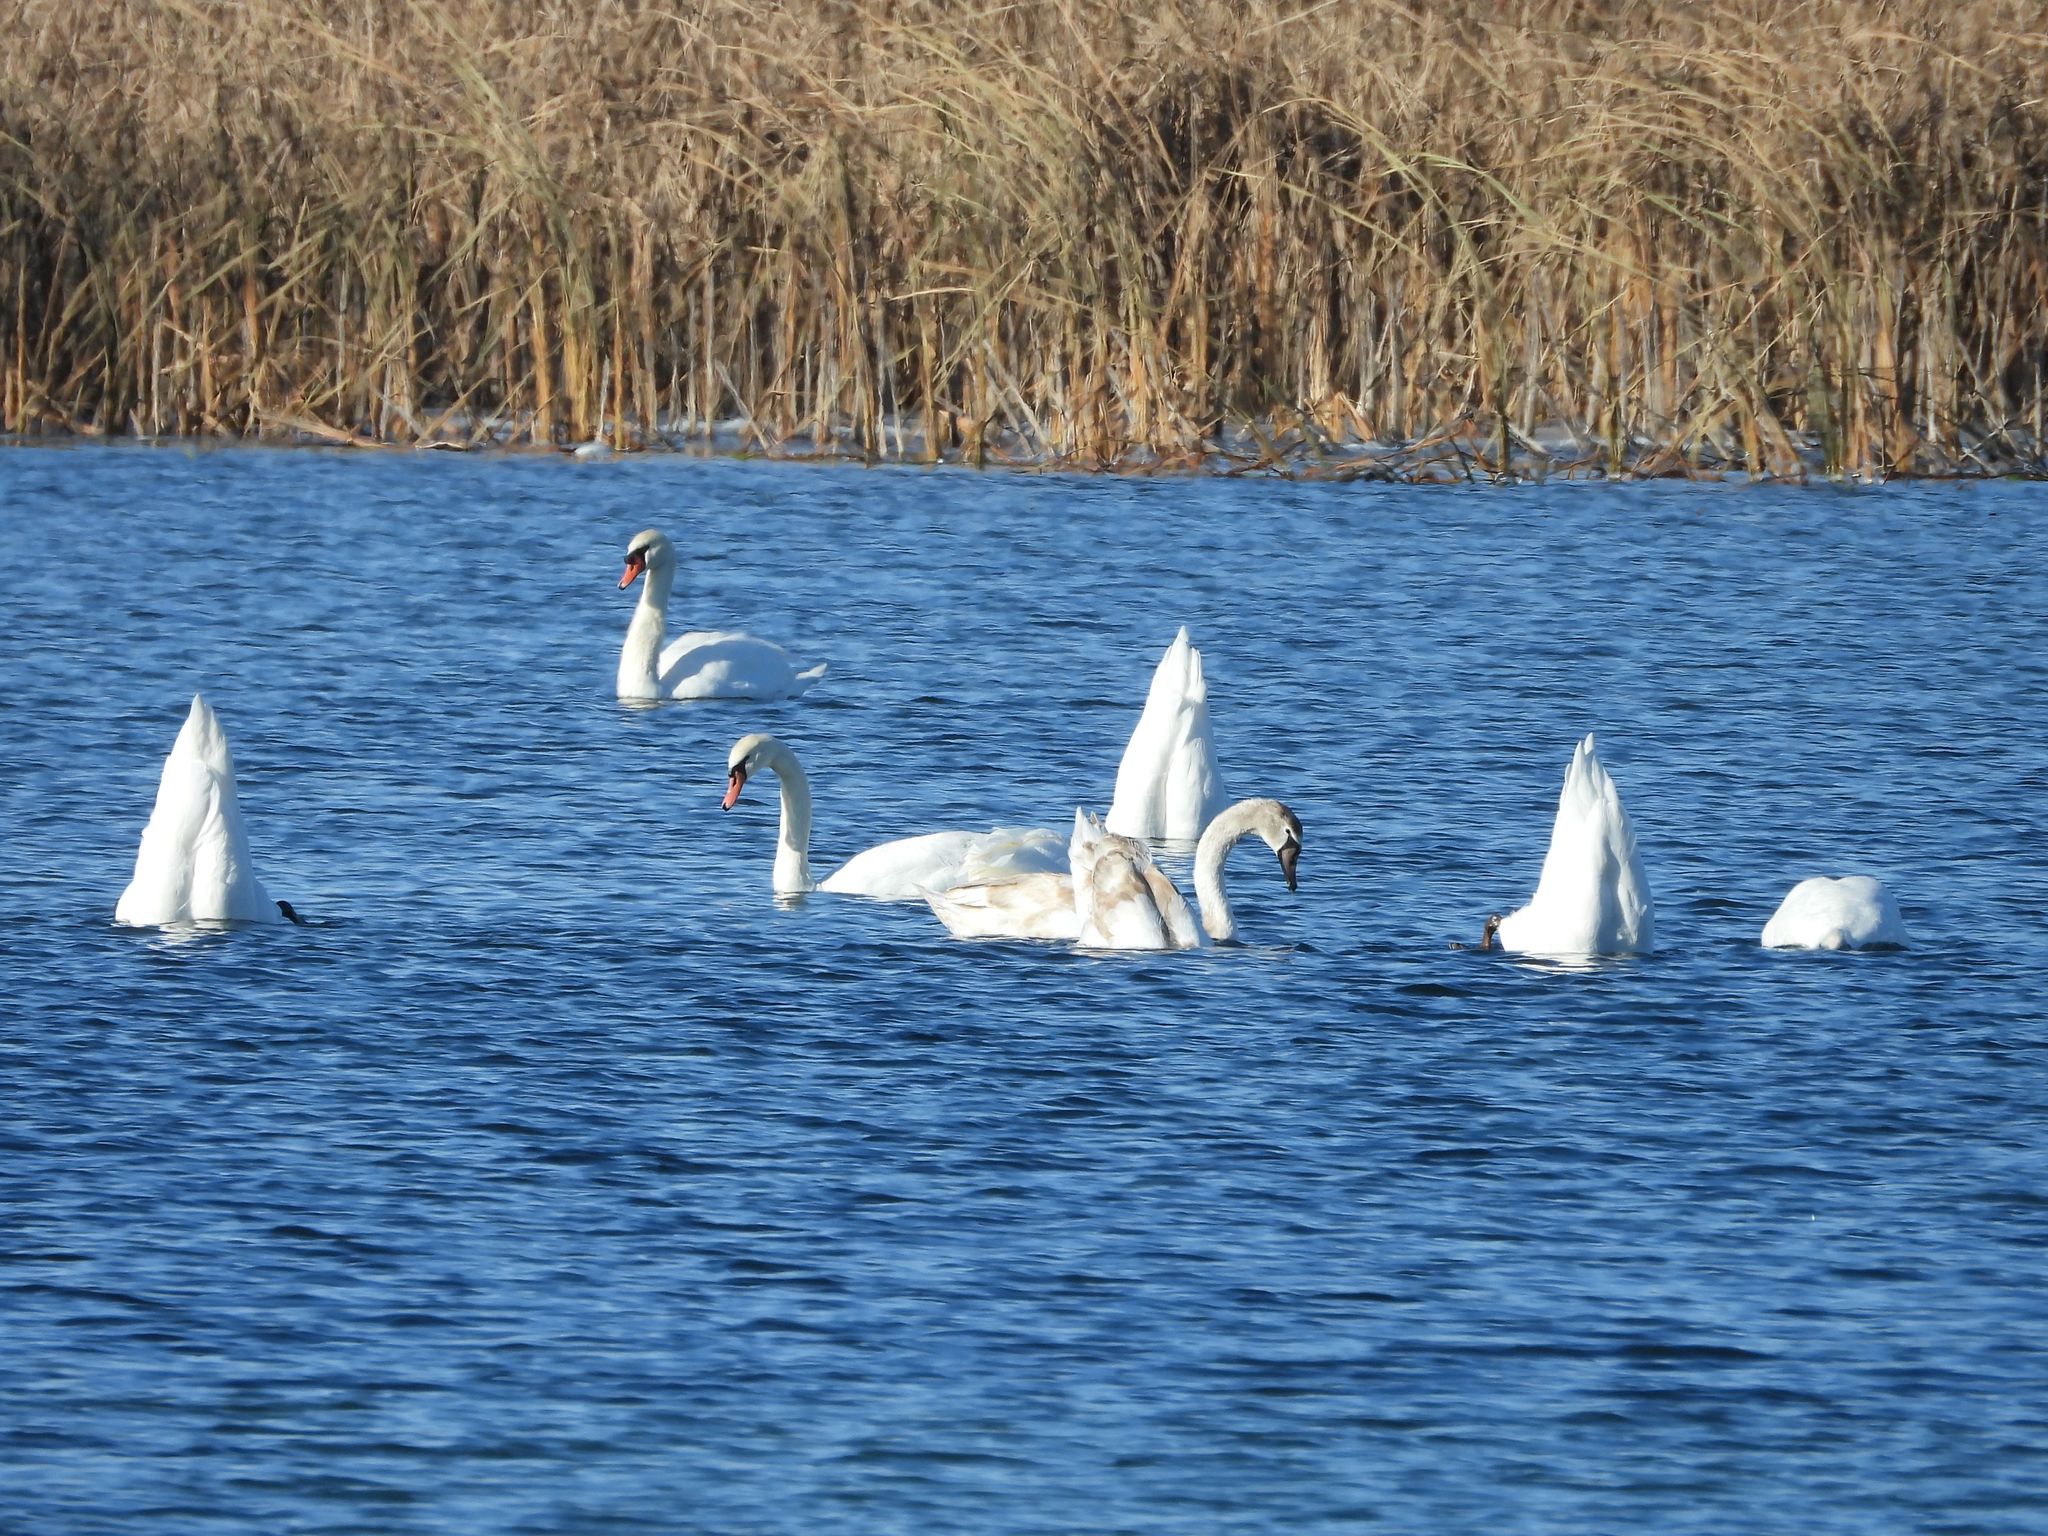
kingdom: Animalia
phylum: Chordata
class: Aves
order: Anseriformes
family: Anatidae
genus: Cygnus
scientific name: Cygnus olor
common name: Mute swan
